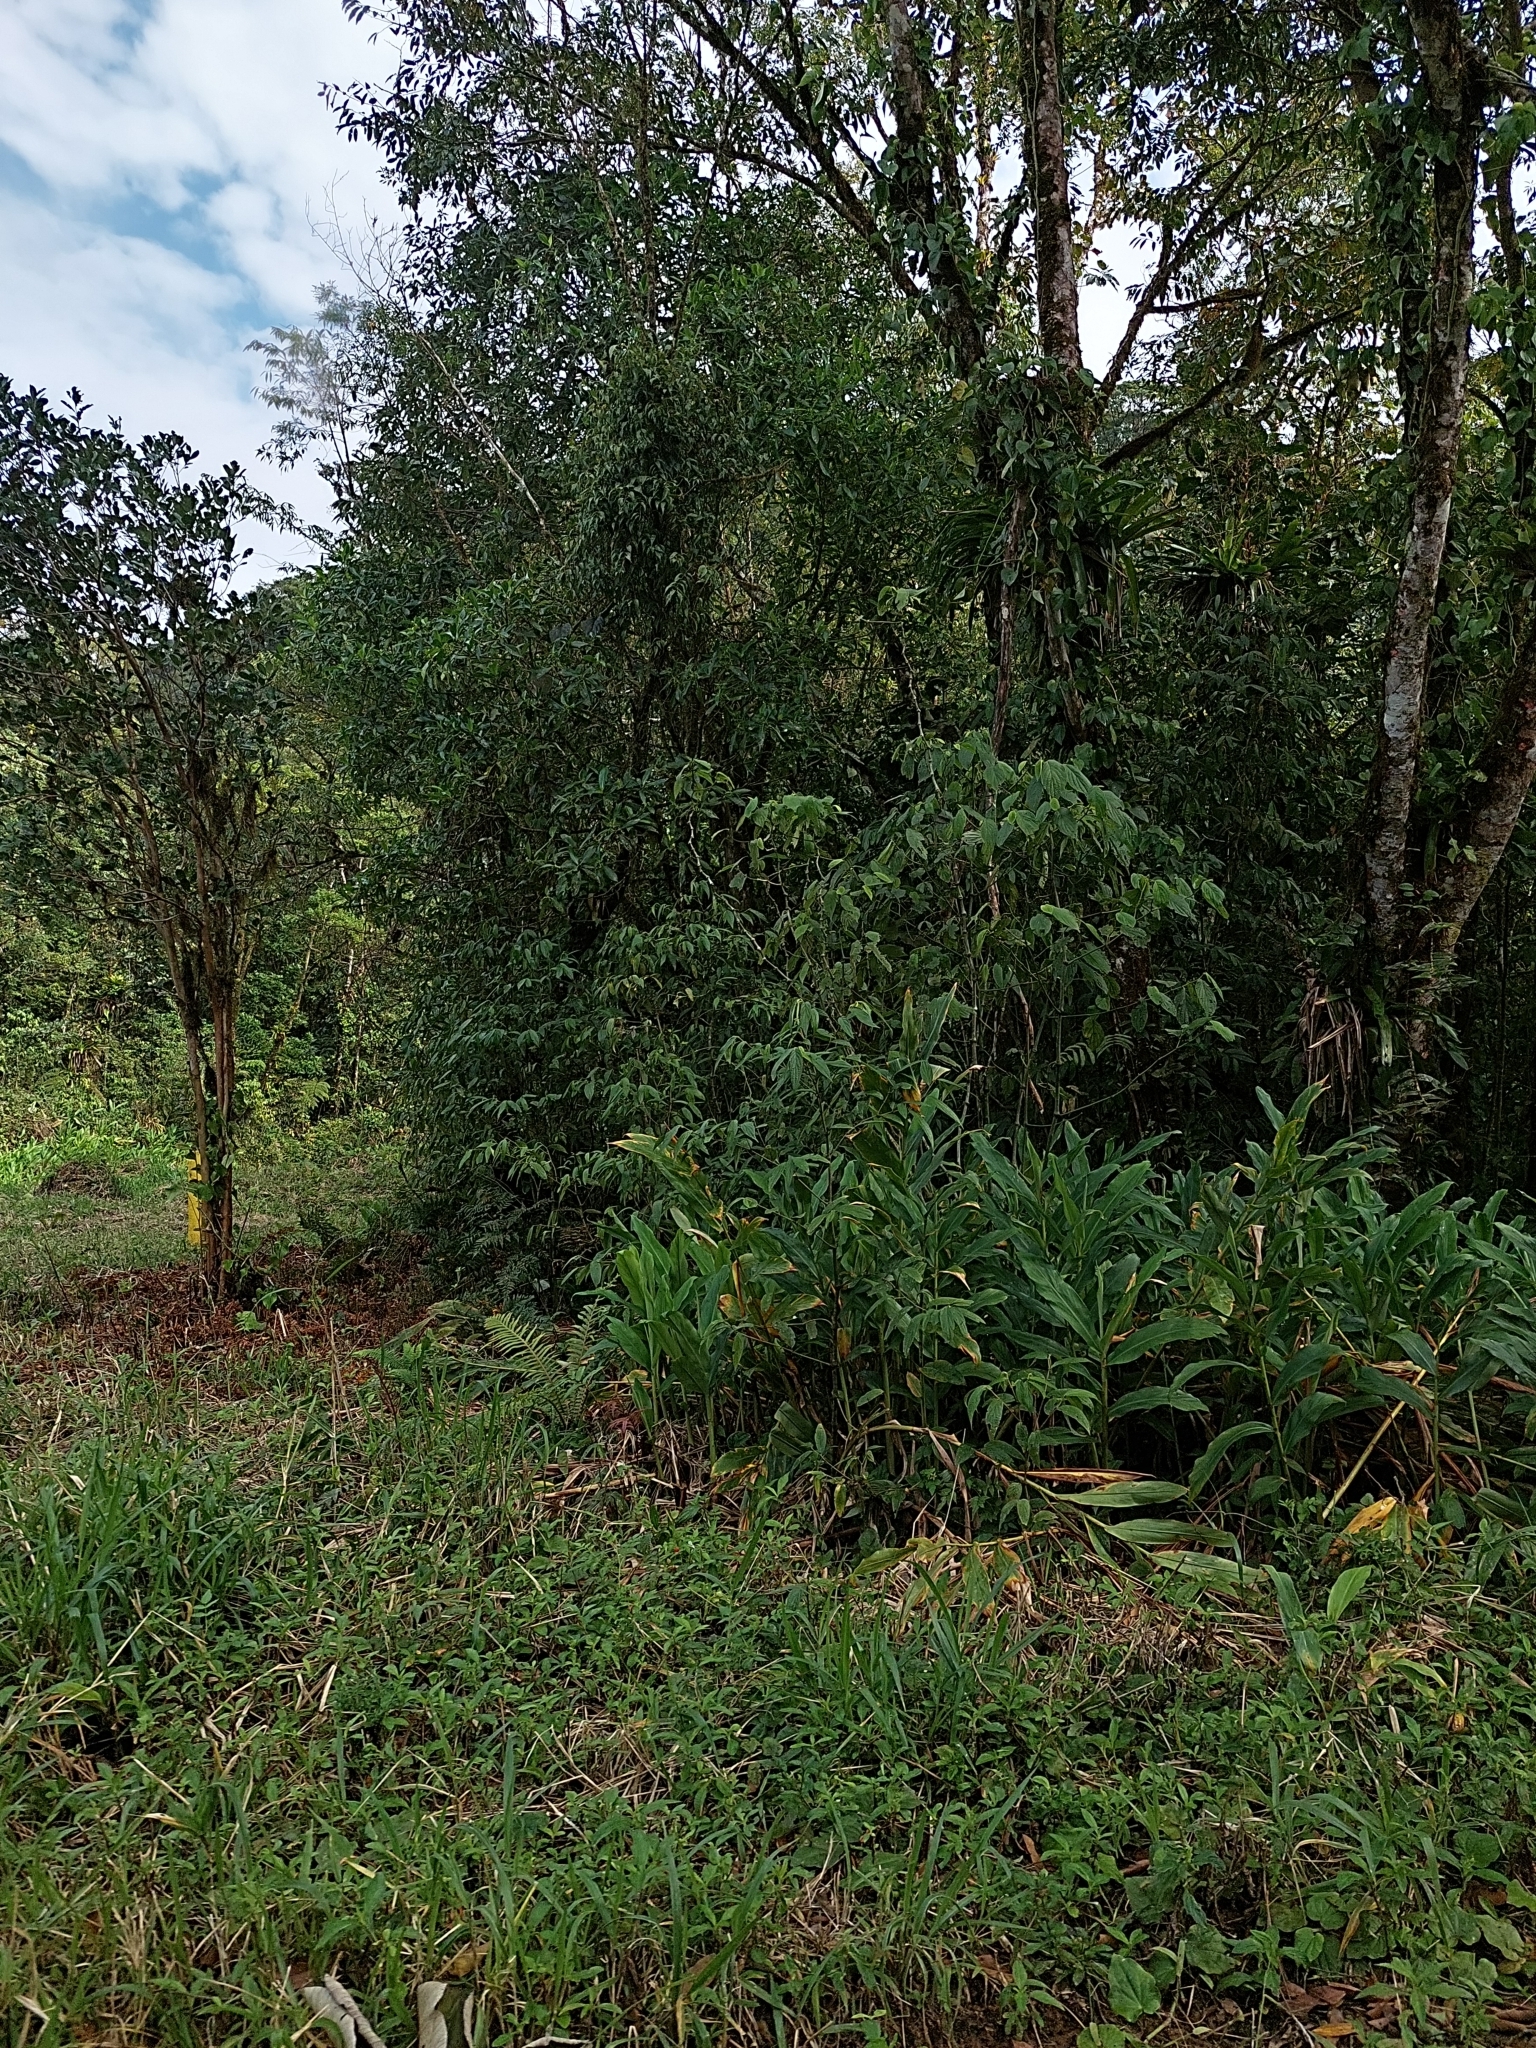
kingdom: Plantae
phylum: Tracheophyta
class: Liliopsida
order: Zingiberales
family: Zingiberaceae
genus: Hedychium
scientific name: Hedychium coronarium
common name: White garland-lily
